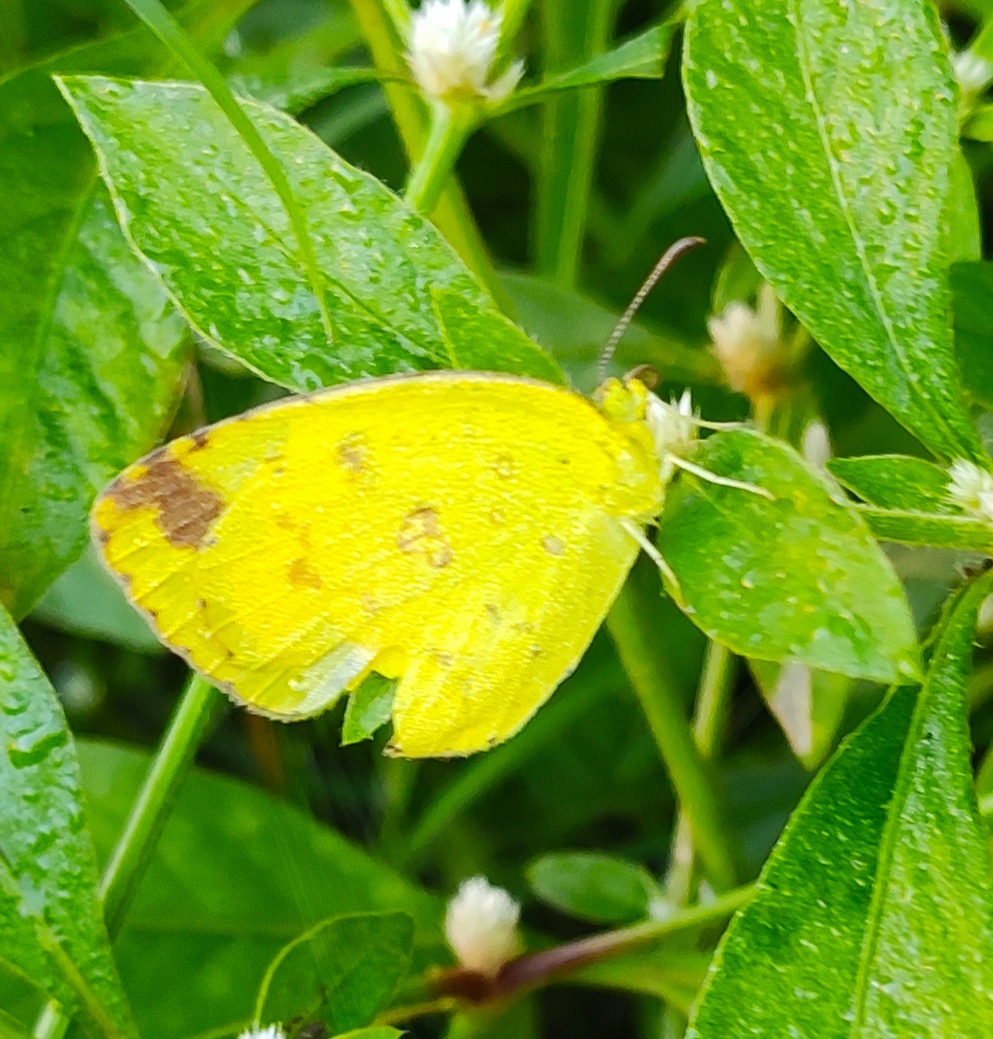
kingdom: Animalia
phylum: Arthropoda
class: Insecta
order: Lepidoptera
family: Pieridae
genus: Eurema
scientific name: Eurema hecabe
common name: Pale grass yellow
